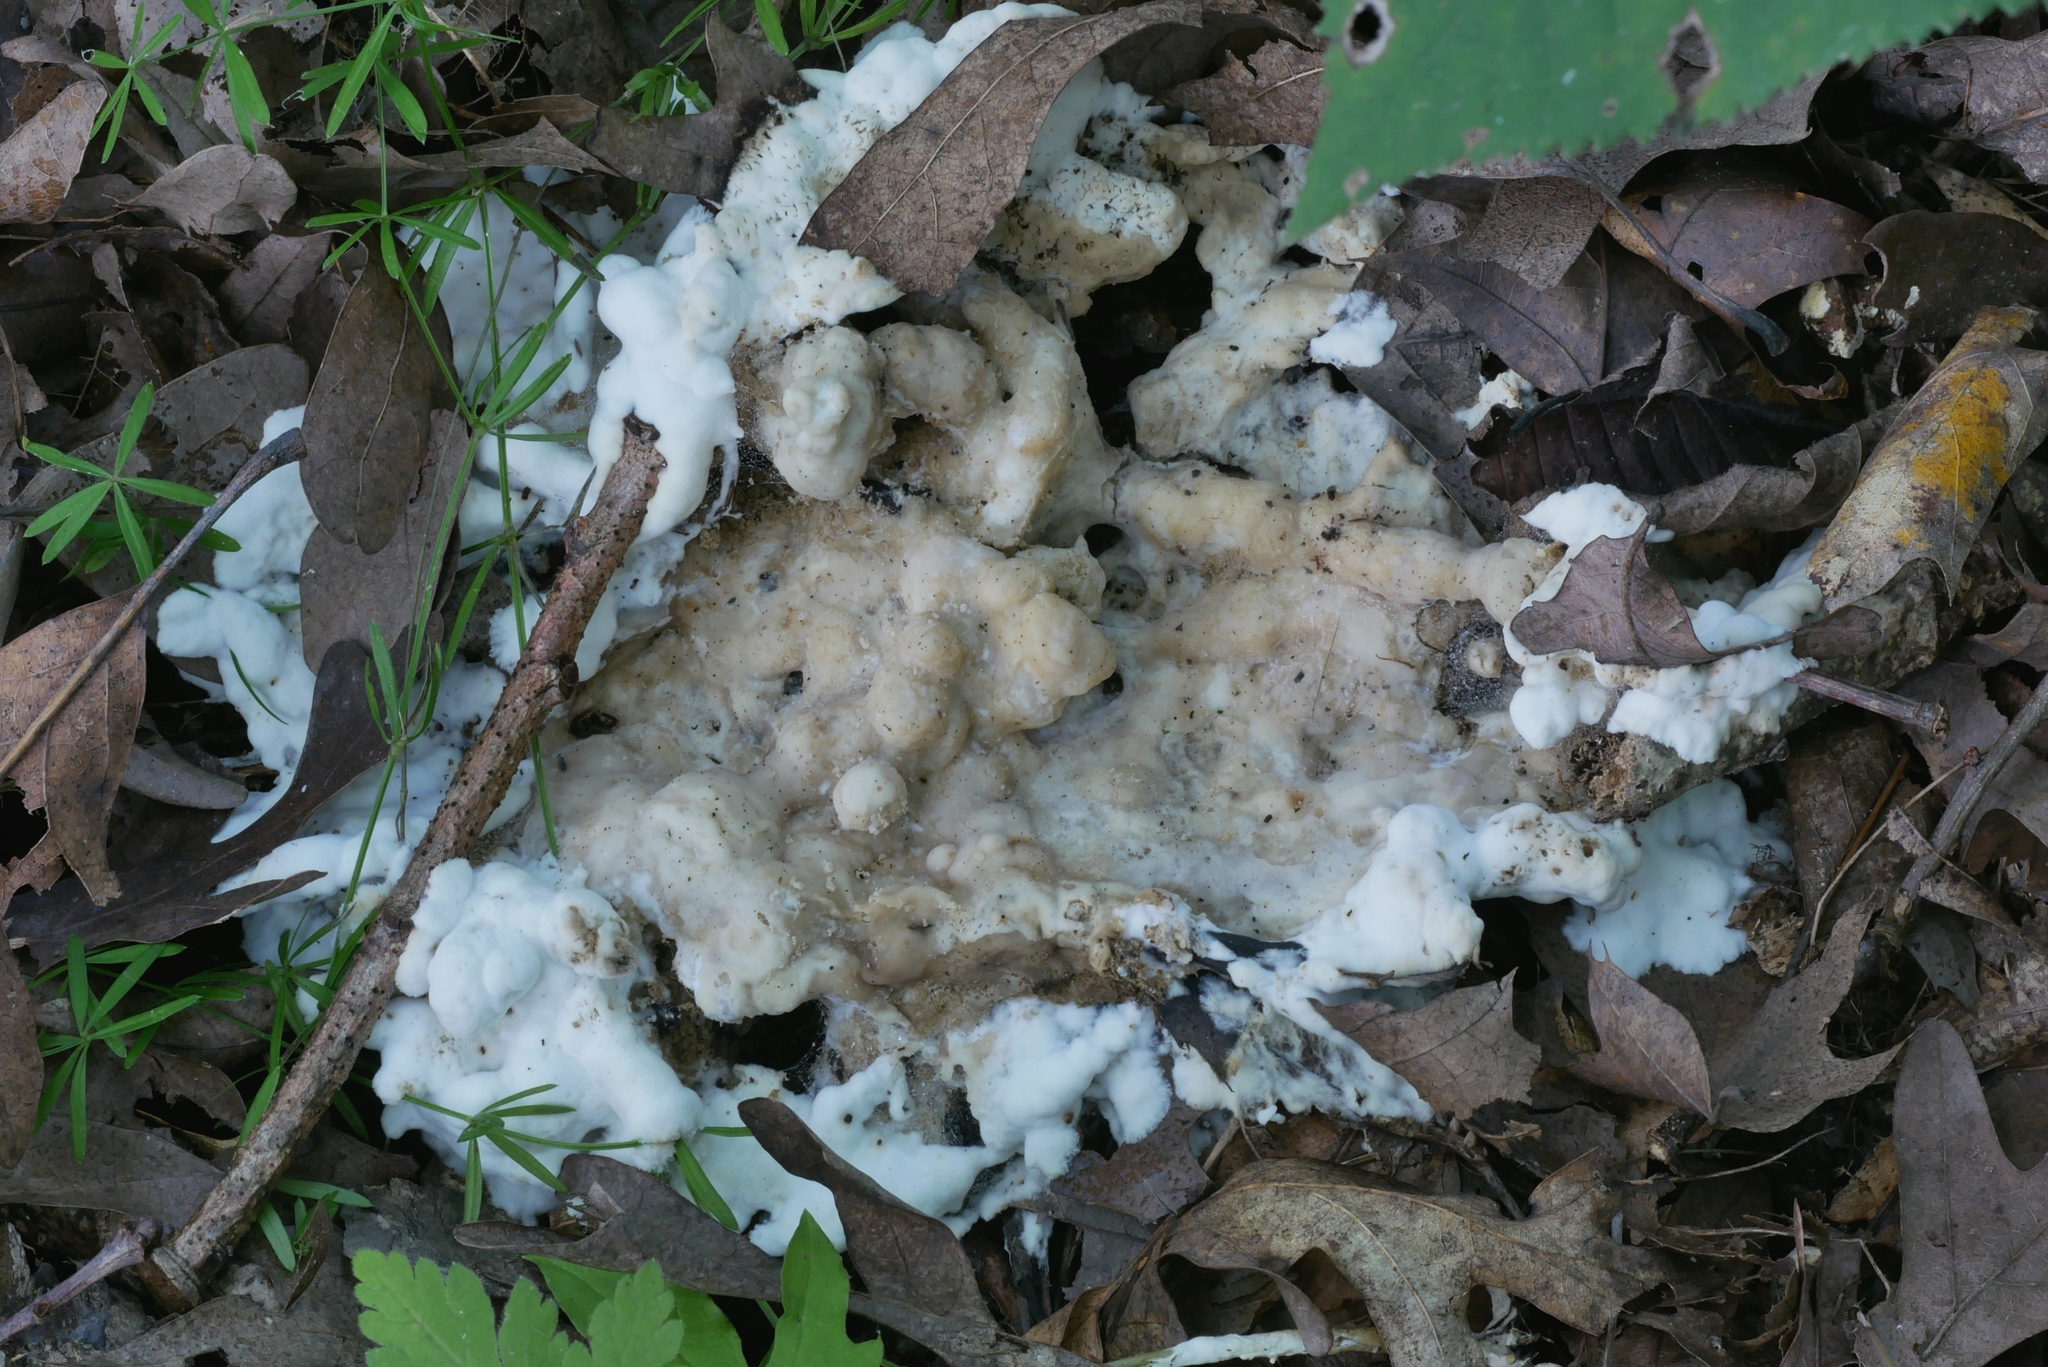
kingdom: Fungi
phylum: Basidiomycota
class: Agaricomycetes
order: Sebacinales
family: Sebacinaceae
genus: Sebacina
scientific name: Sebacina incrustans
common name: Enveloping crust
